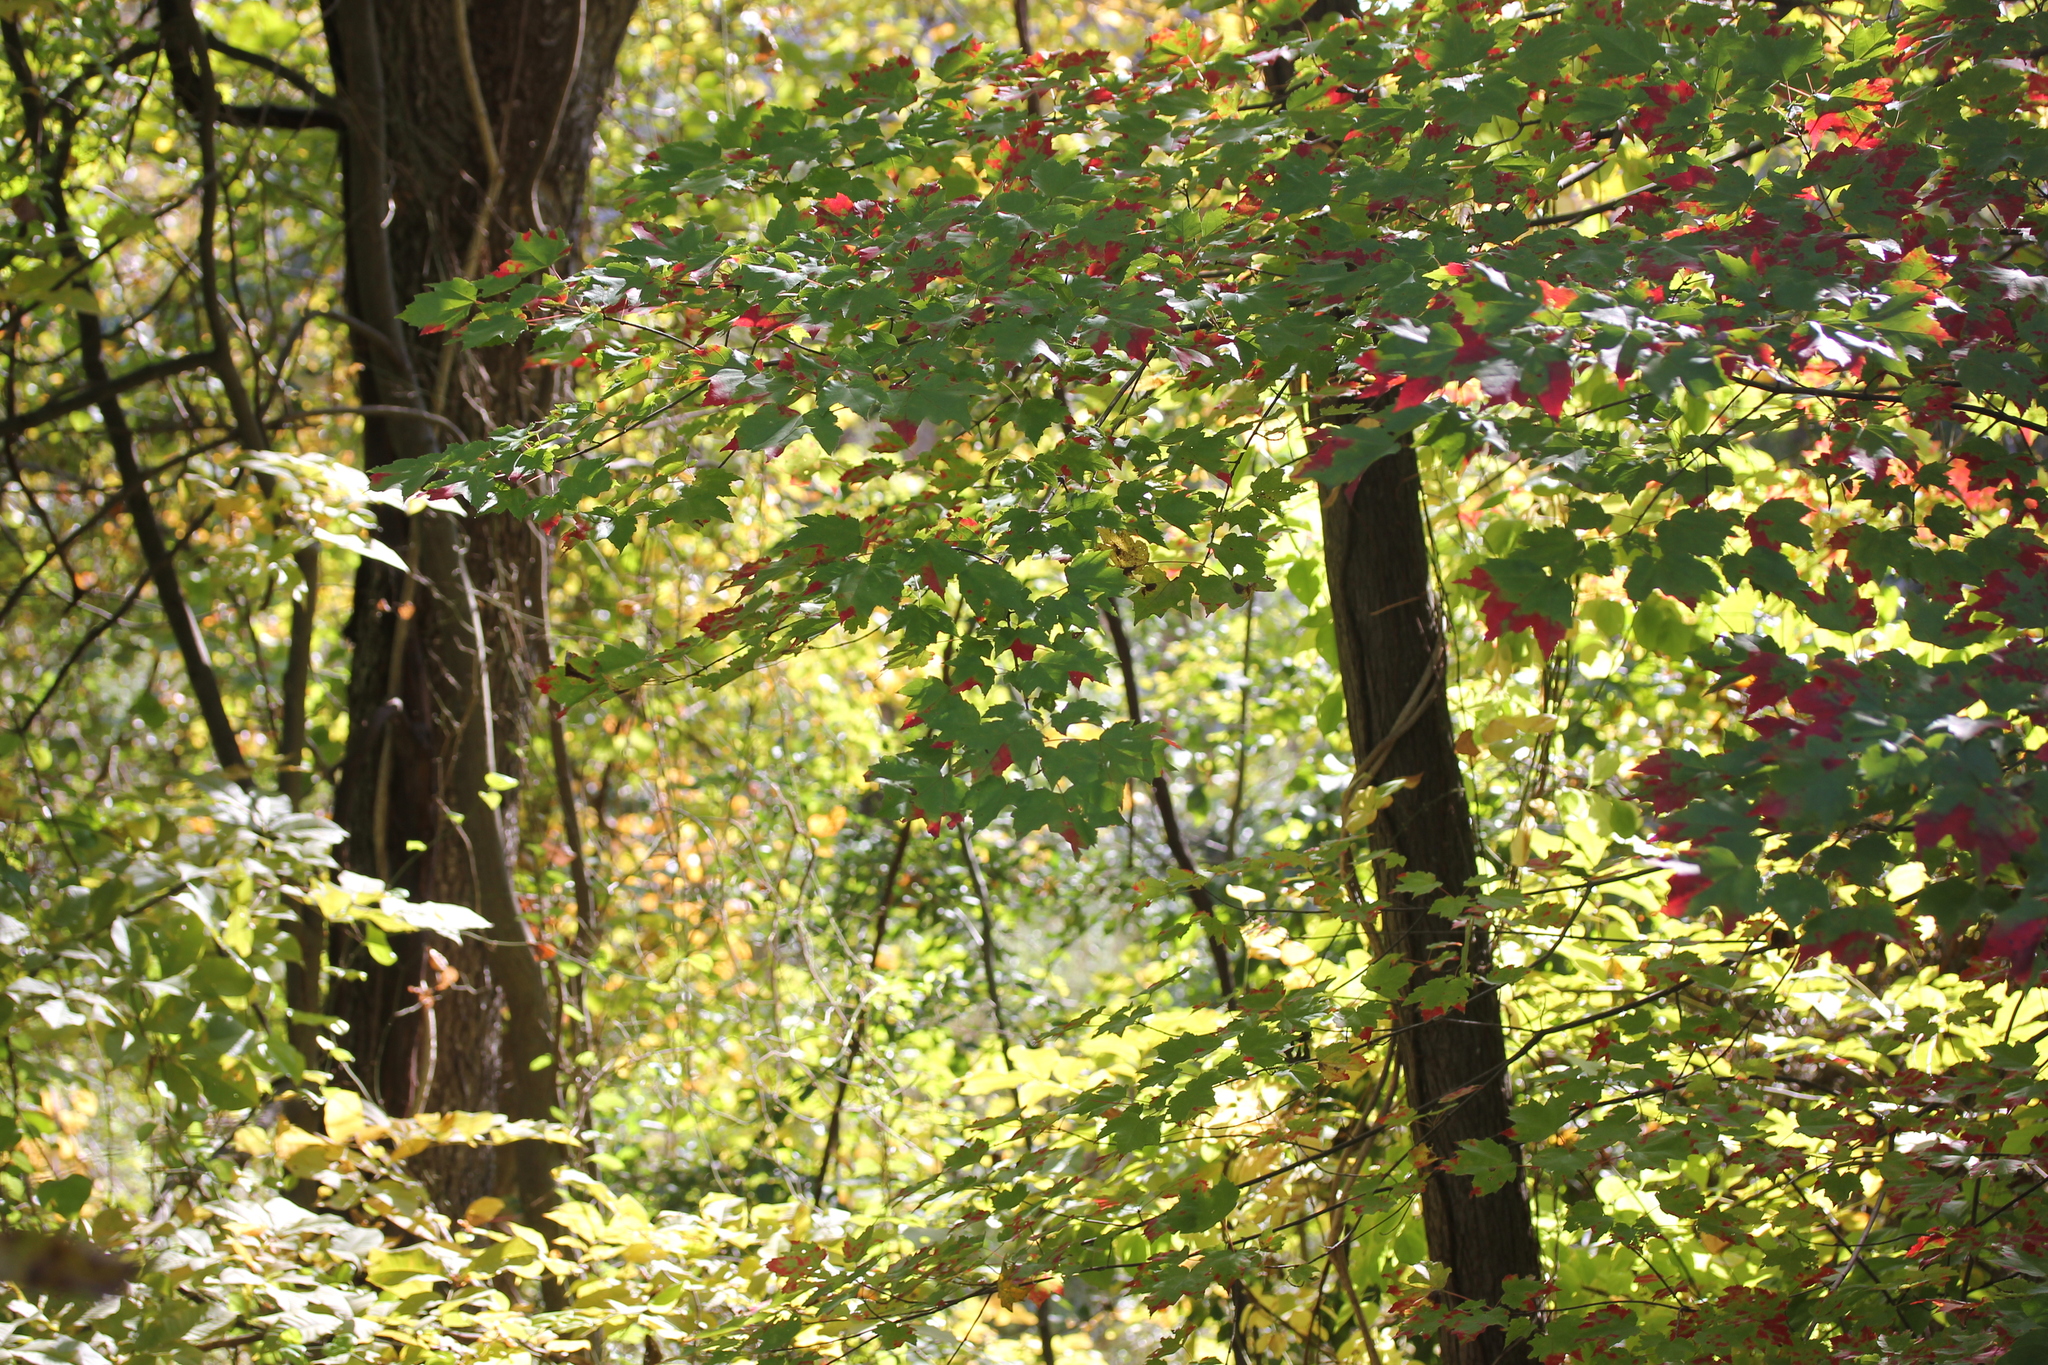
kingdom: Plantae
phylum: Tracheophyta
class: Magnoliopsida
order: Sapindales
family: Sapindaceae
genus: Acer
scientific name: Acer rubrum
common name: Red maple
